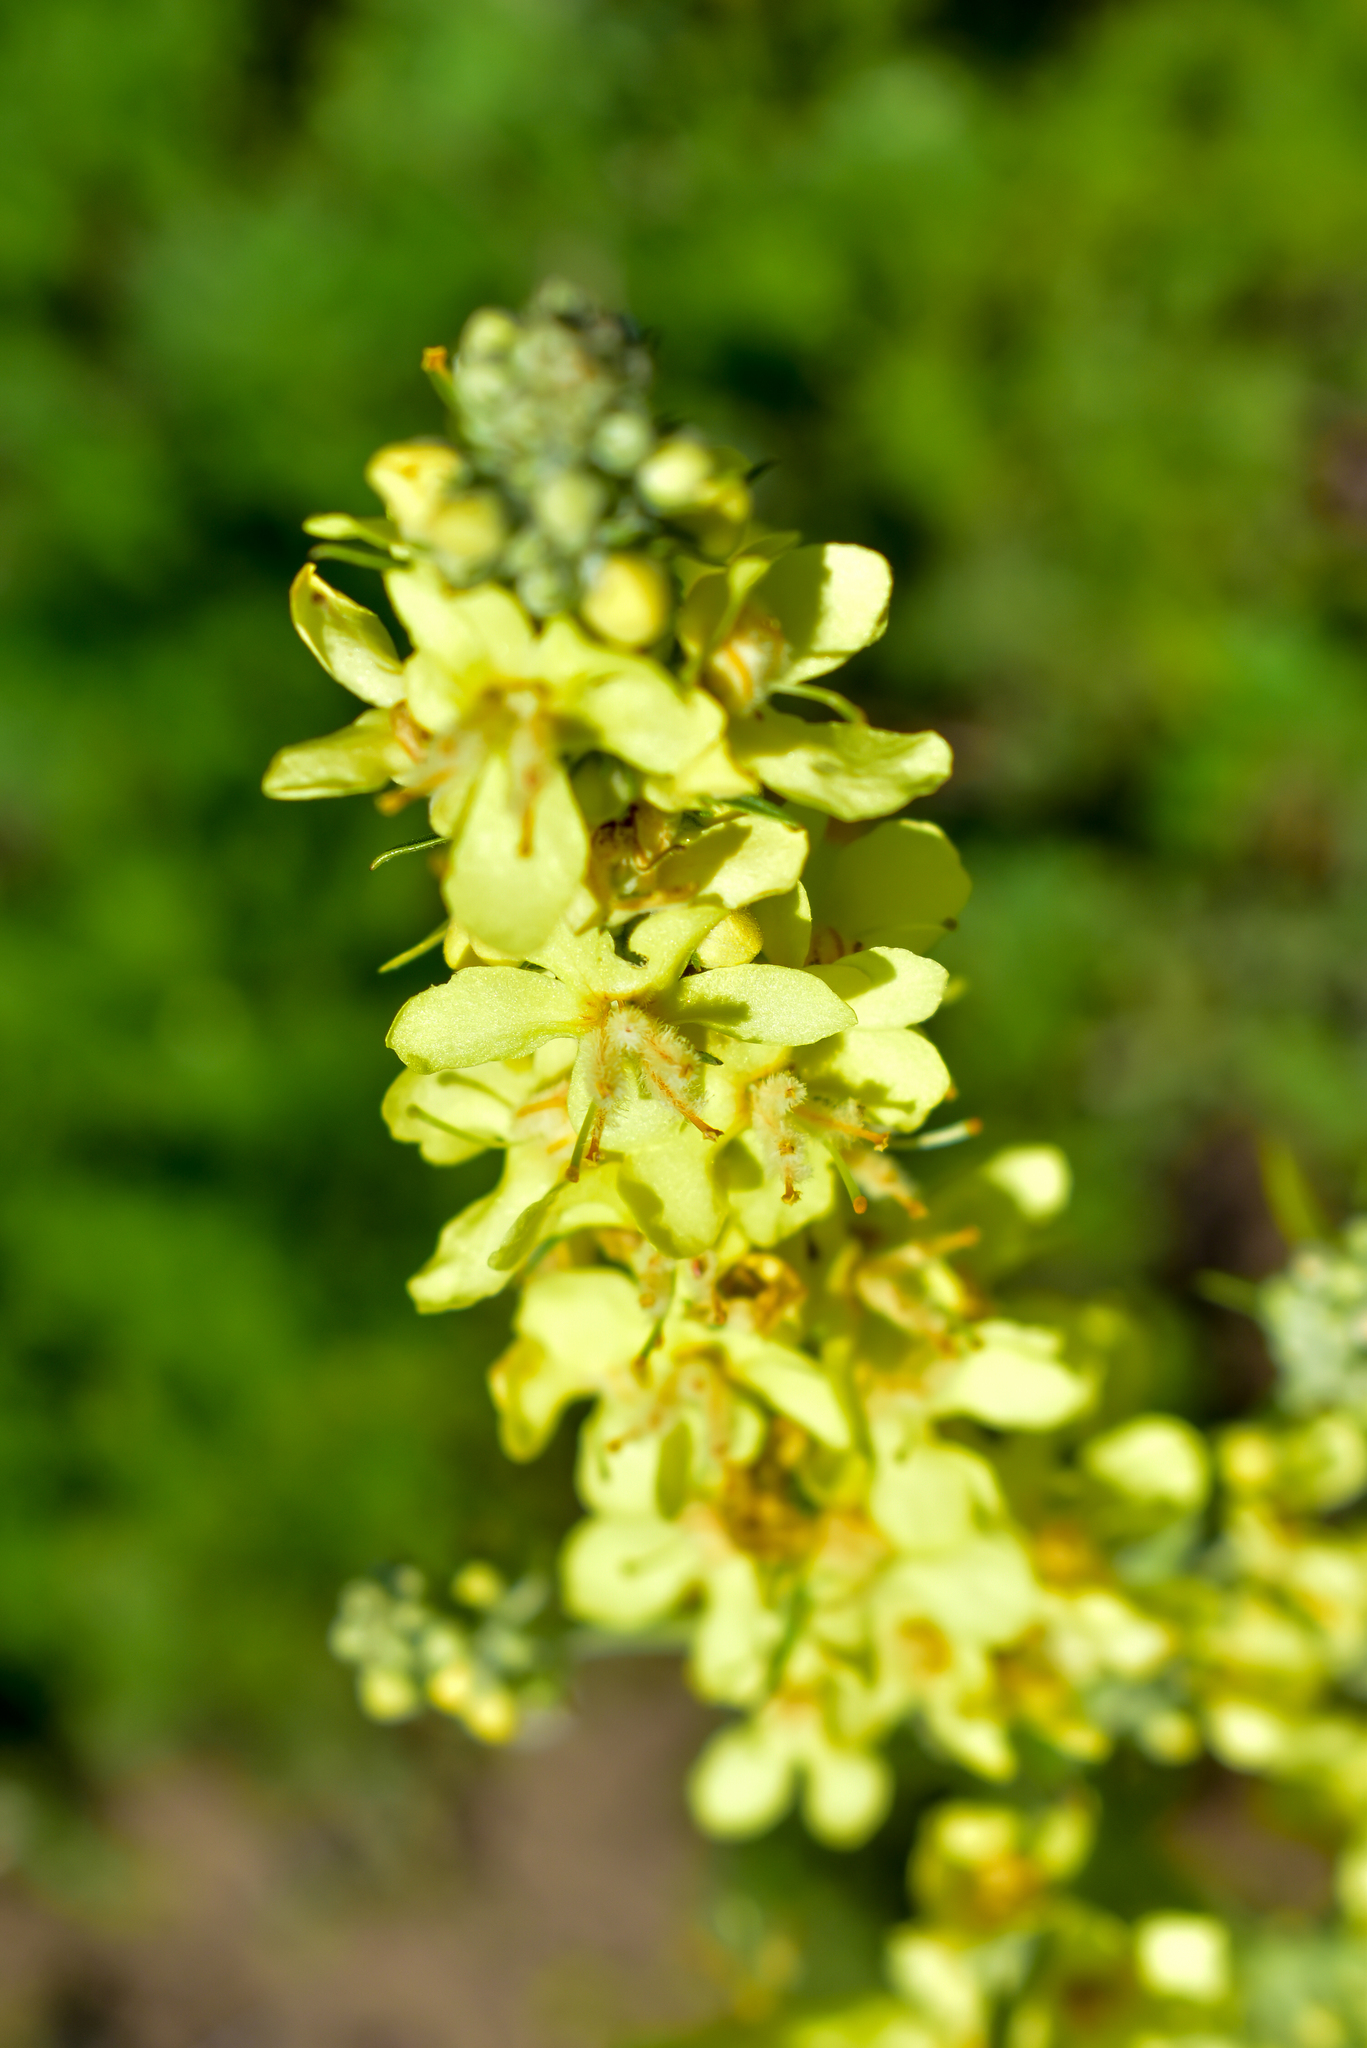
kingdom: Plantae
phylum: Tracheophyta
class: Magnoliopsida
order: Lamiales
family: Scrophulariaceae
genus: Verbascum
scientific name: Verbascum lychnitis
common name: White mullein
